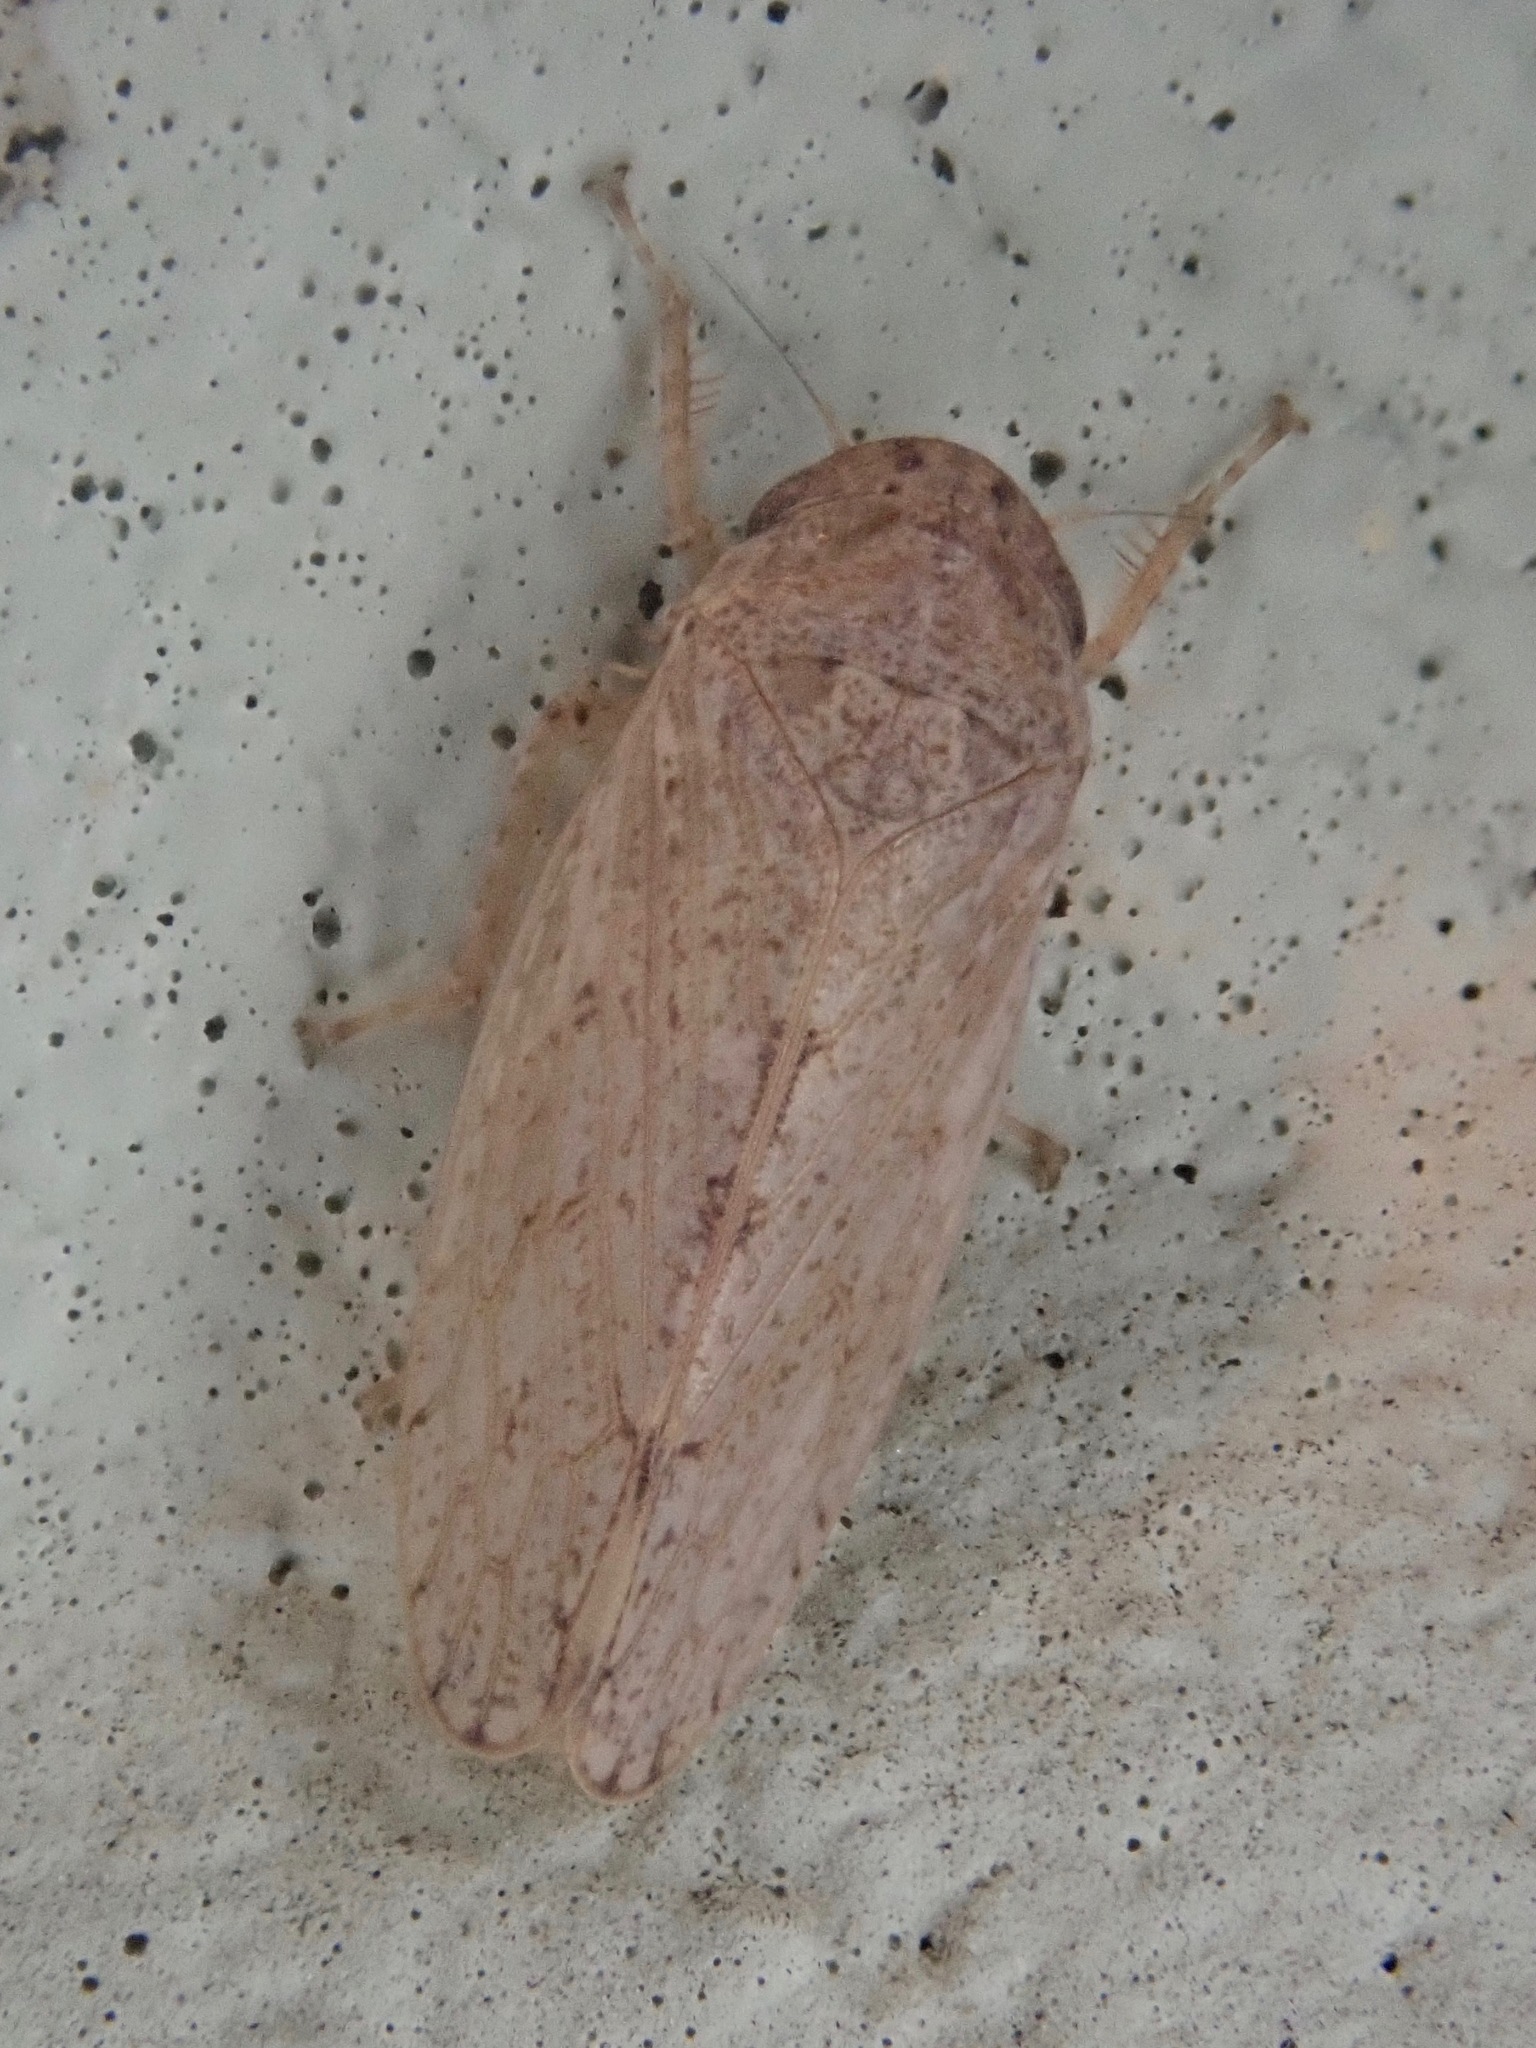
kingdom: Animalia
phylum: Arthropoda
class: Insecta
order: Hemiptera
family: Cicadellidae
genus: Curtara
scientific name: Curtara insularis
